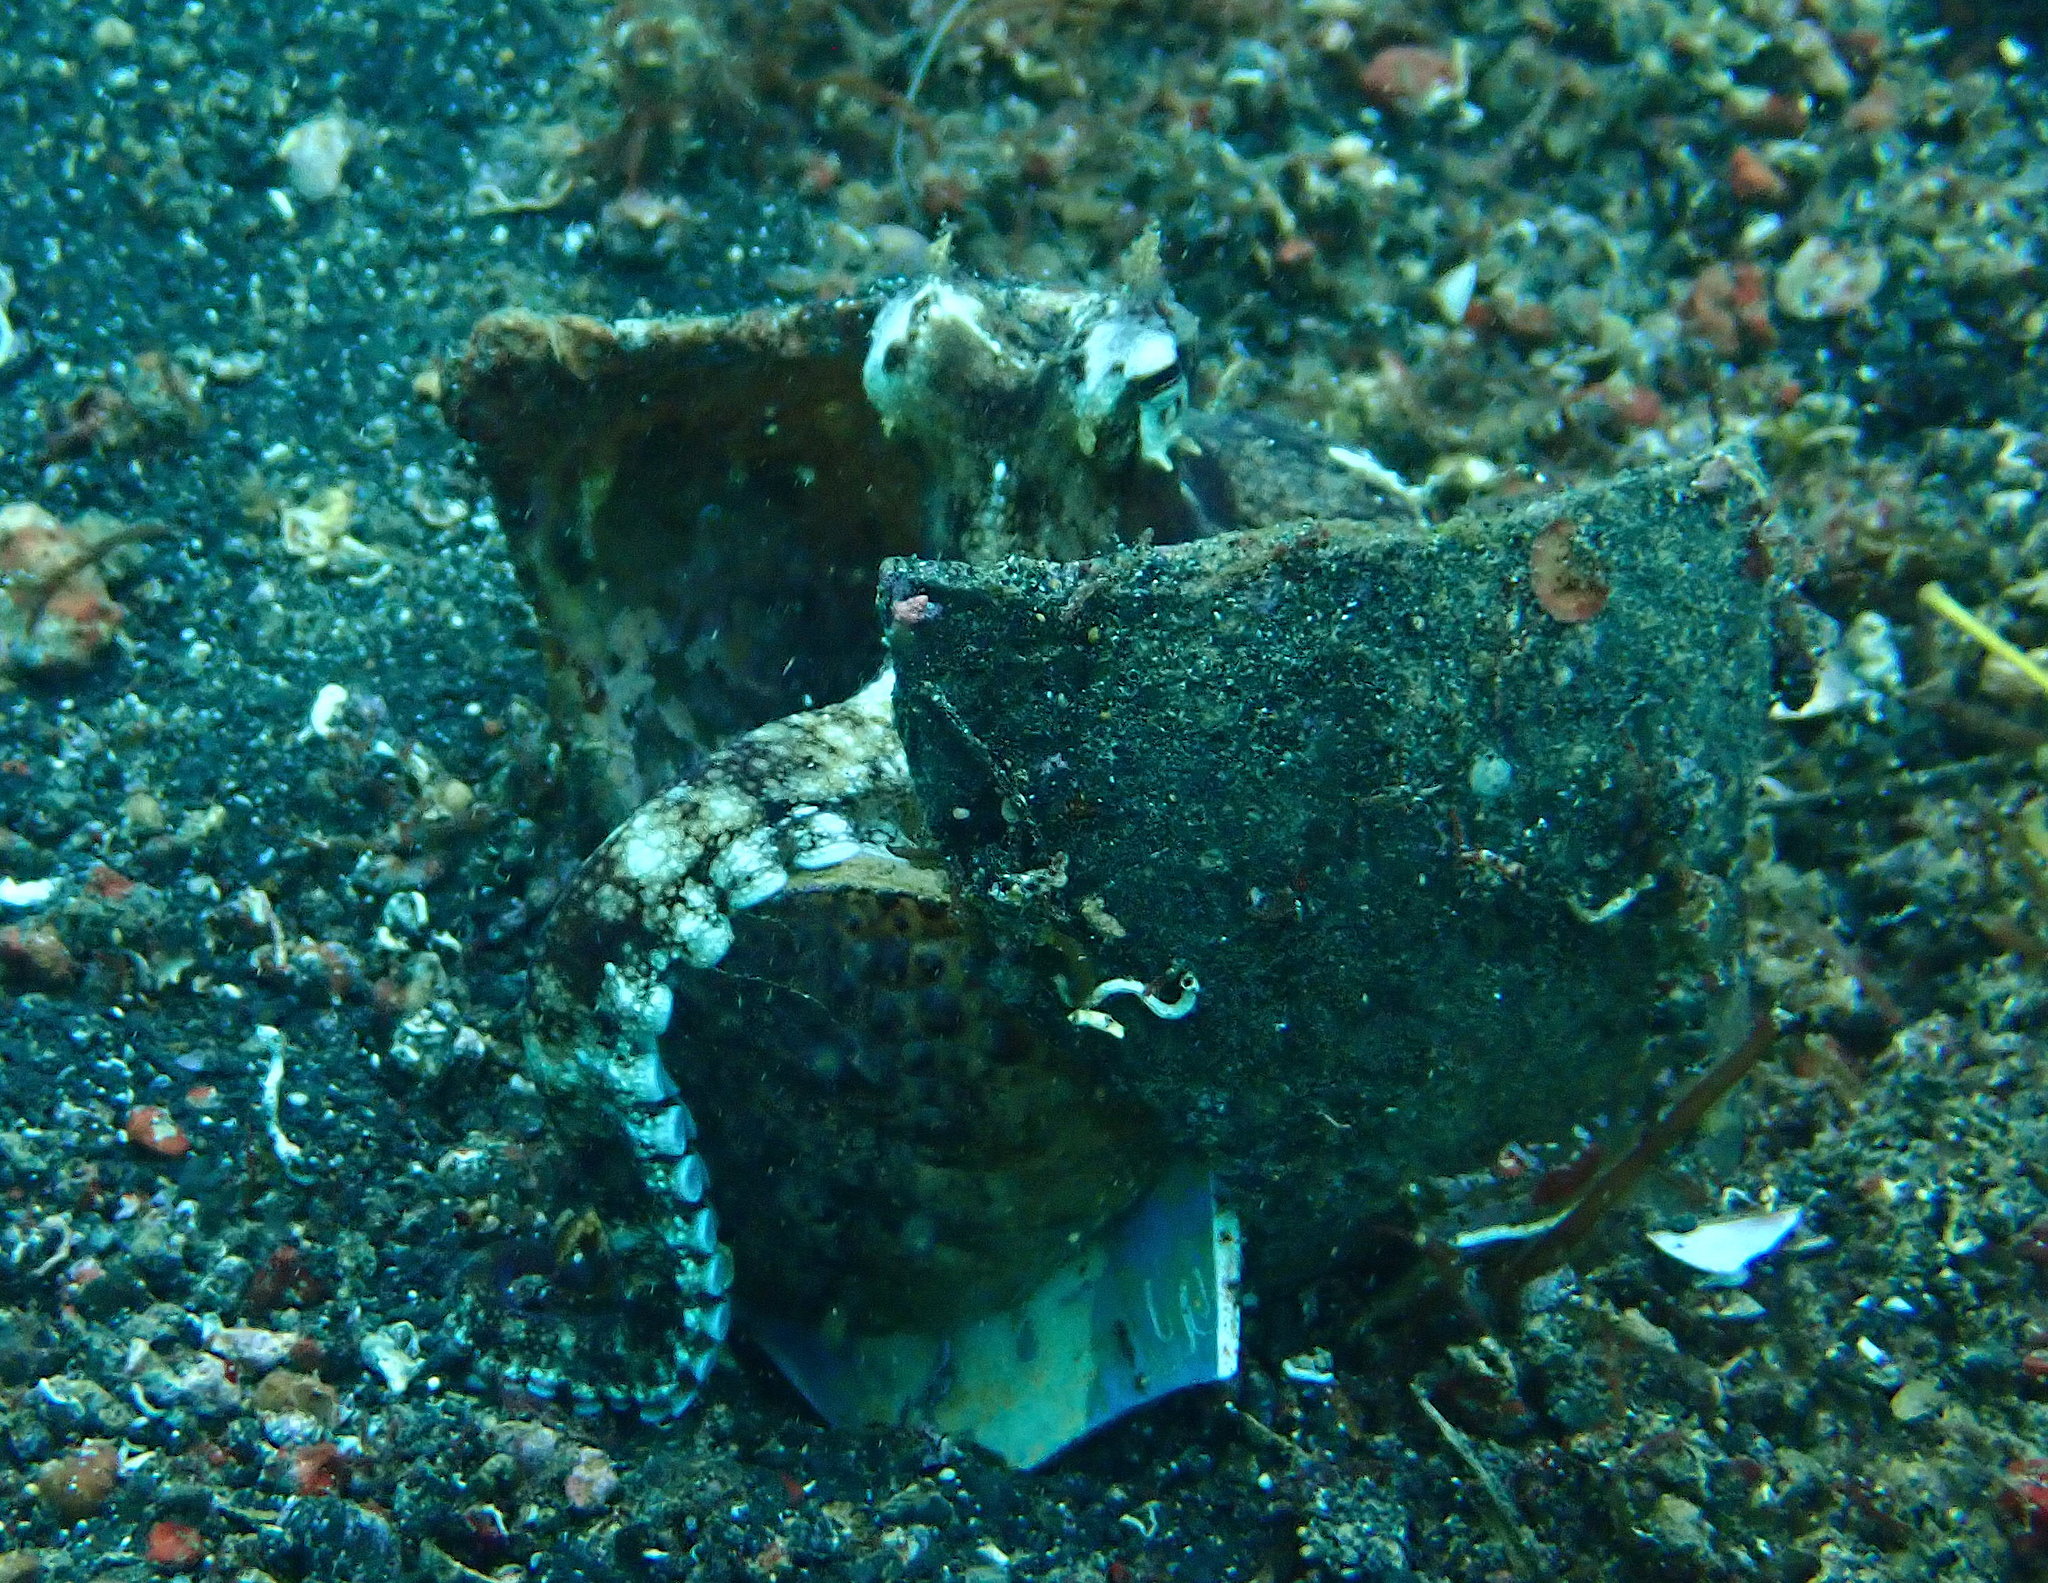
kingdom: Animalia
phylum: Mollusca
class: Cephalopoda
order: Octopoda
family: Octopodidae
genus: Amphioctopus
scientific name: Amphioctopus marginatus
